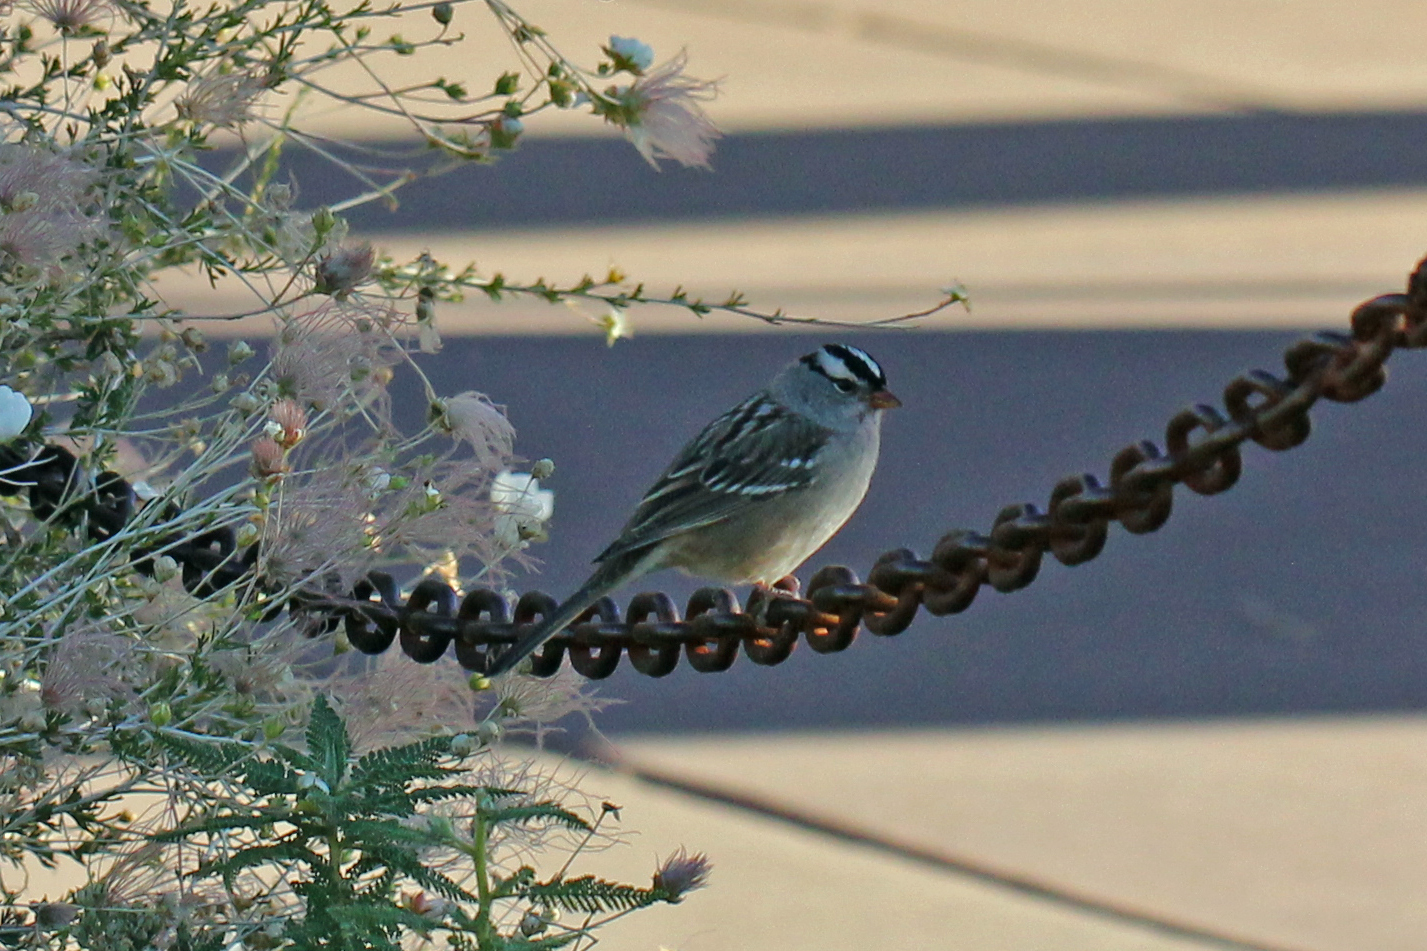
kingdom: Animalia
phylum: Chordata
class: Aves
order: Passeriformes
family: Passerellidae
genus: Zonotrichia
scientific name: Zonotrichia leucophrys
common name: White-crowned sparrow
